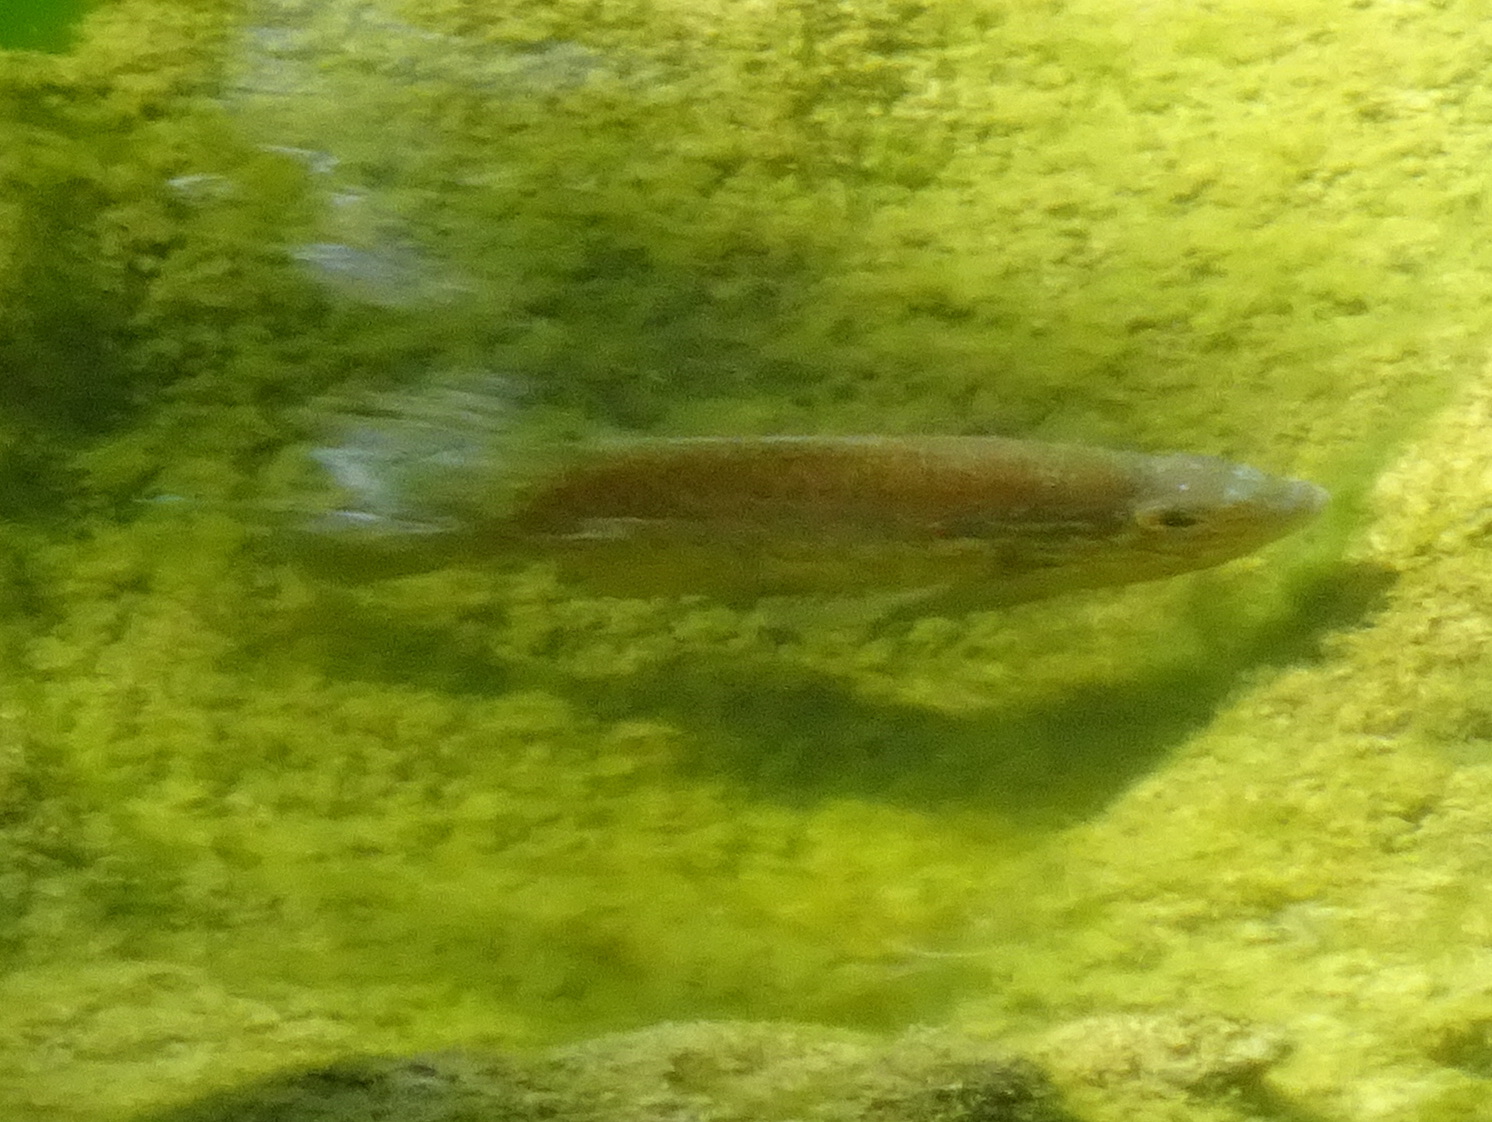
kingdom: Animalia
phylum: Chordata
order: Perciformes
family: Centrarchidae
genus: Lepomis
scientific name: Lepomis gibbosus
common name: Pumpkinseed
